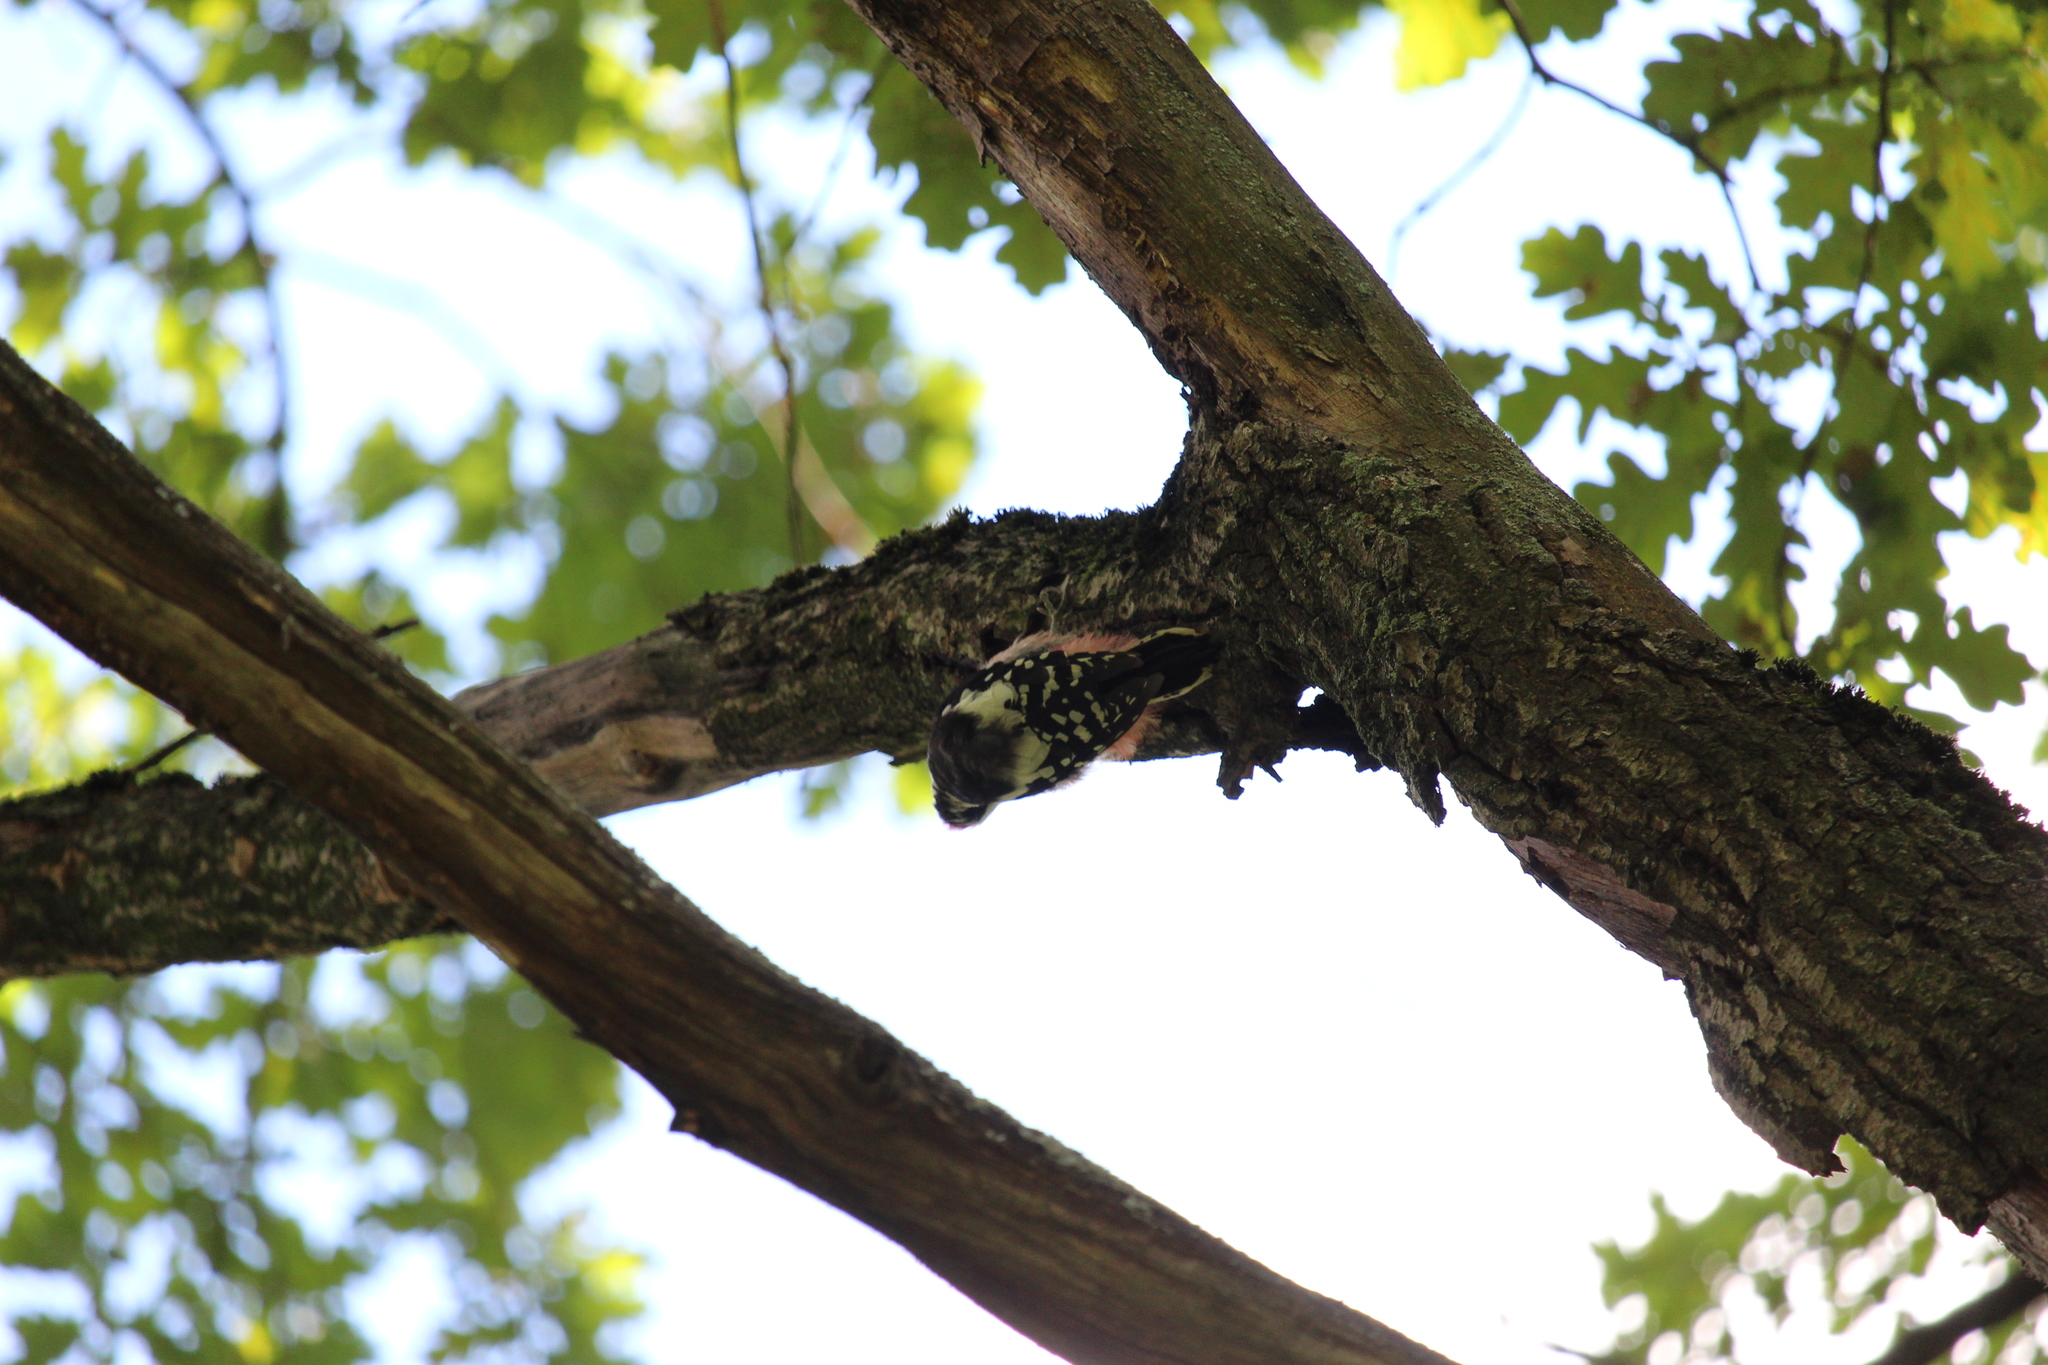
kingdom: Animalia
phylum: Chordata
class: Aves
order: Piciformes
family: Picidae
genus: Dendrocoptes
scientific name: Dendrocoptes medius
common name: Middle spotted woodpecker
